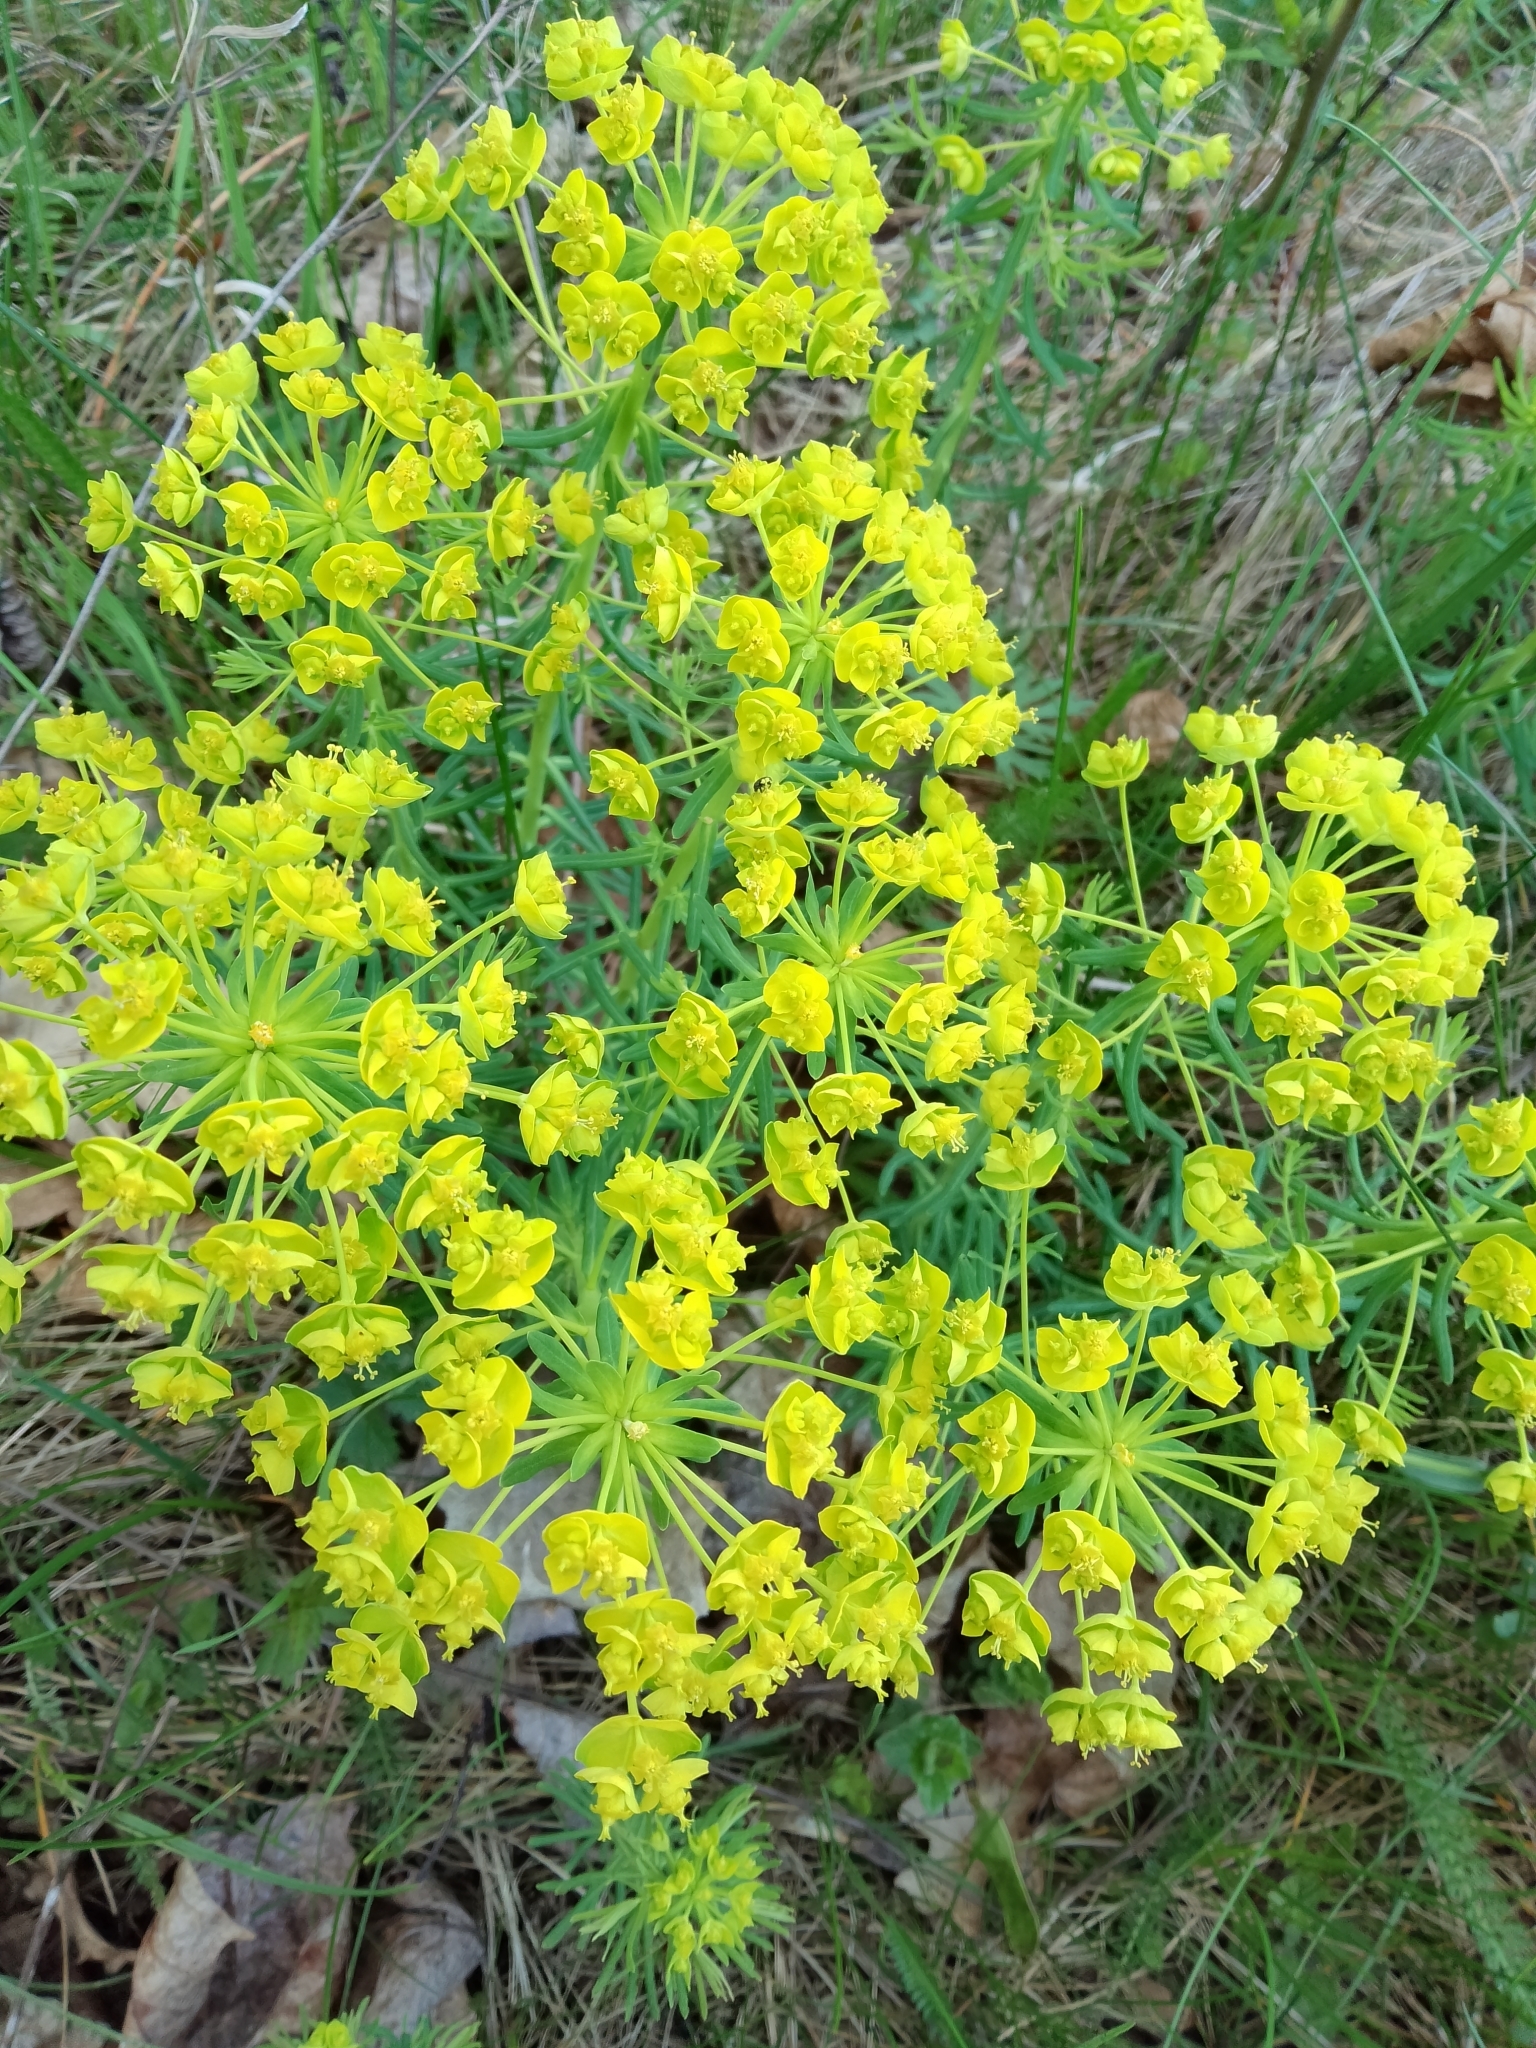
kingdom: Plantae
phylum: Tracheophyta
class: Magnoliopsida
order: Malpighiales
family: Euphorbiaceae
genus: Euphorbia
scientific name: Euphorbia cyparissias
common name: Cypress spurge
